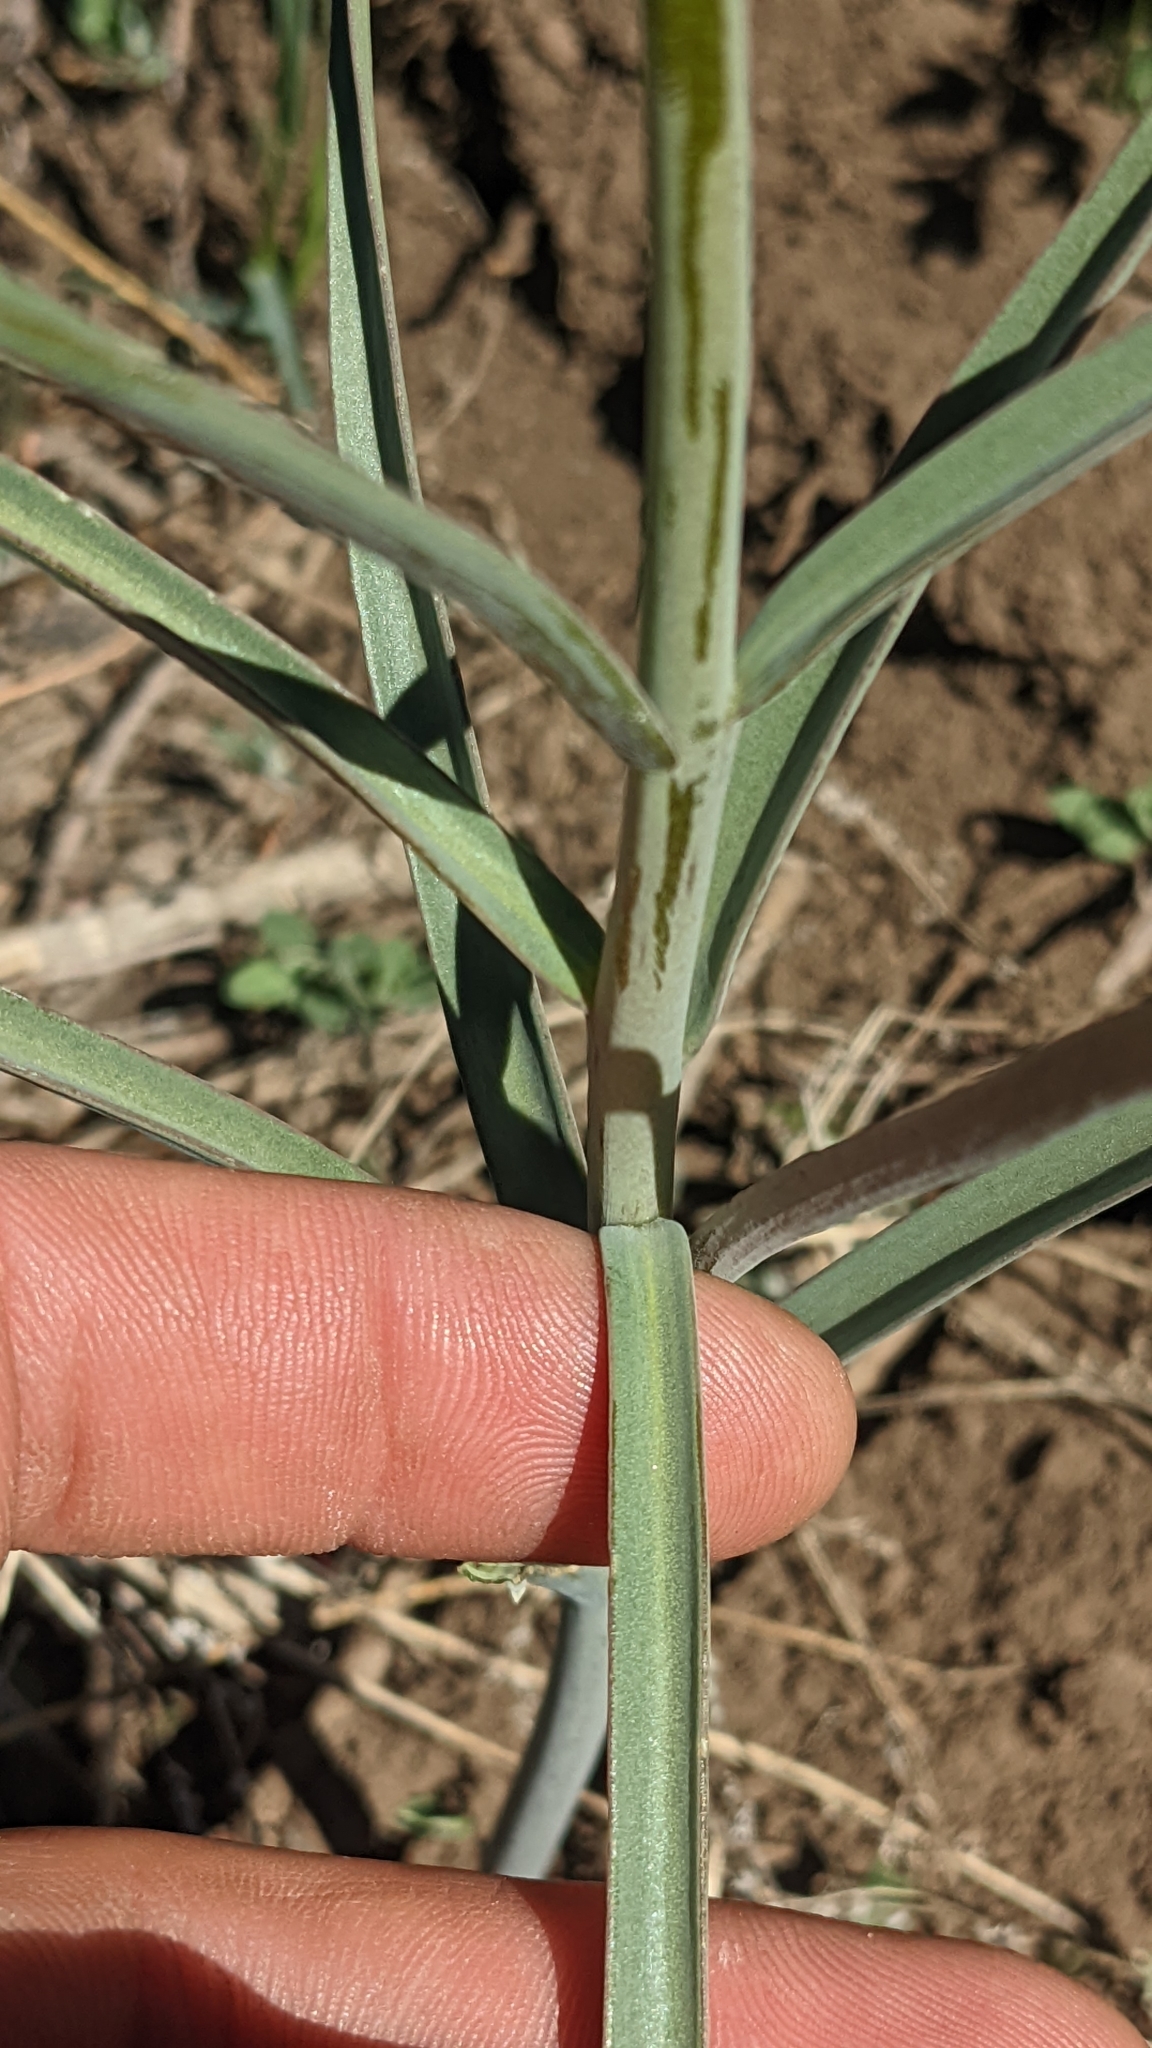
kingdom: Plantae
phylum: Tracheophyta
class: Liliopsida
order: Liliales
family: Liliaceae
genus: Fritillaria
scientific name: Fritillaria atropurpurea
